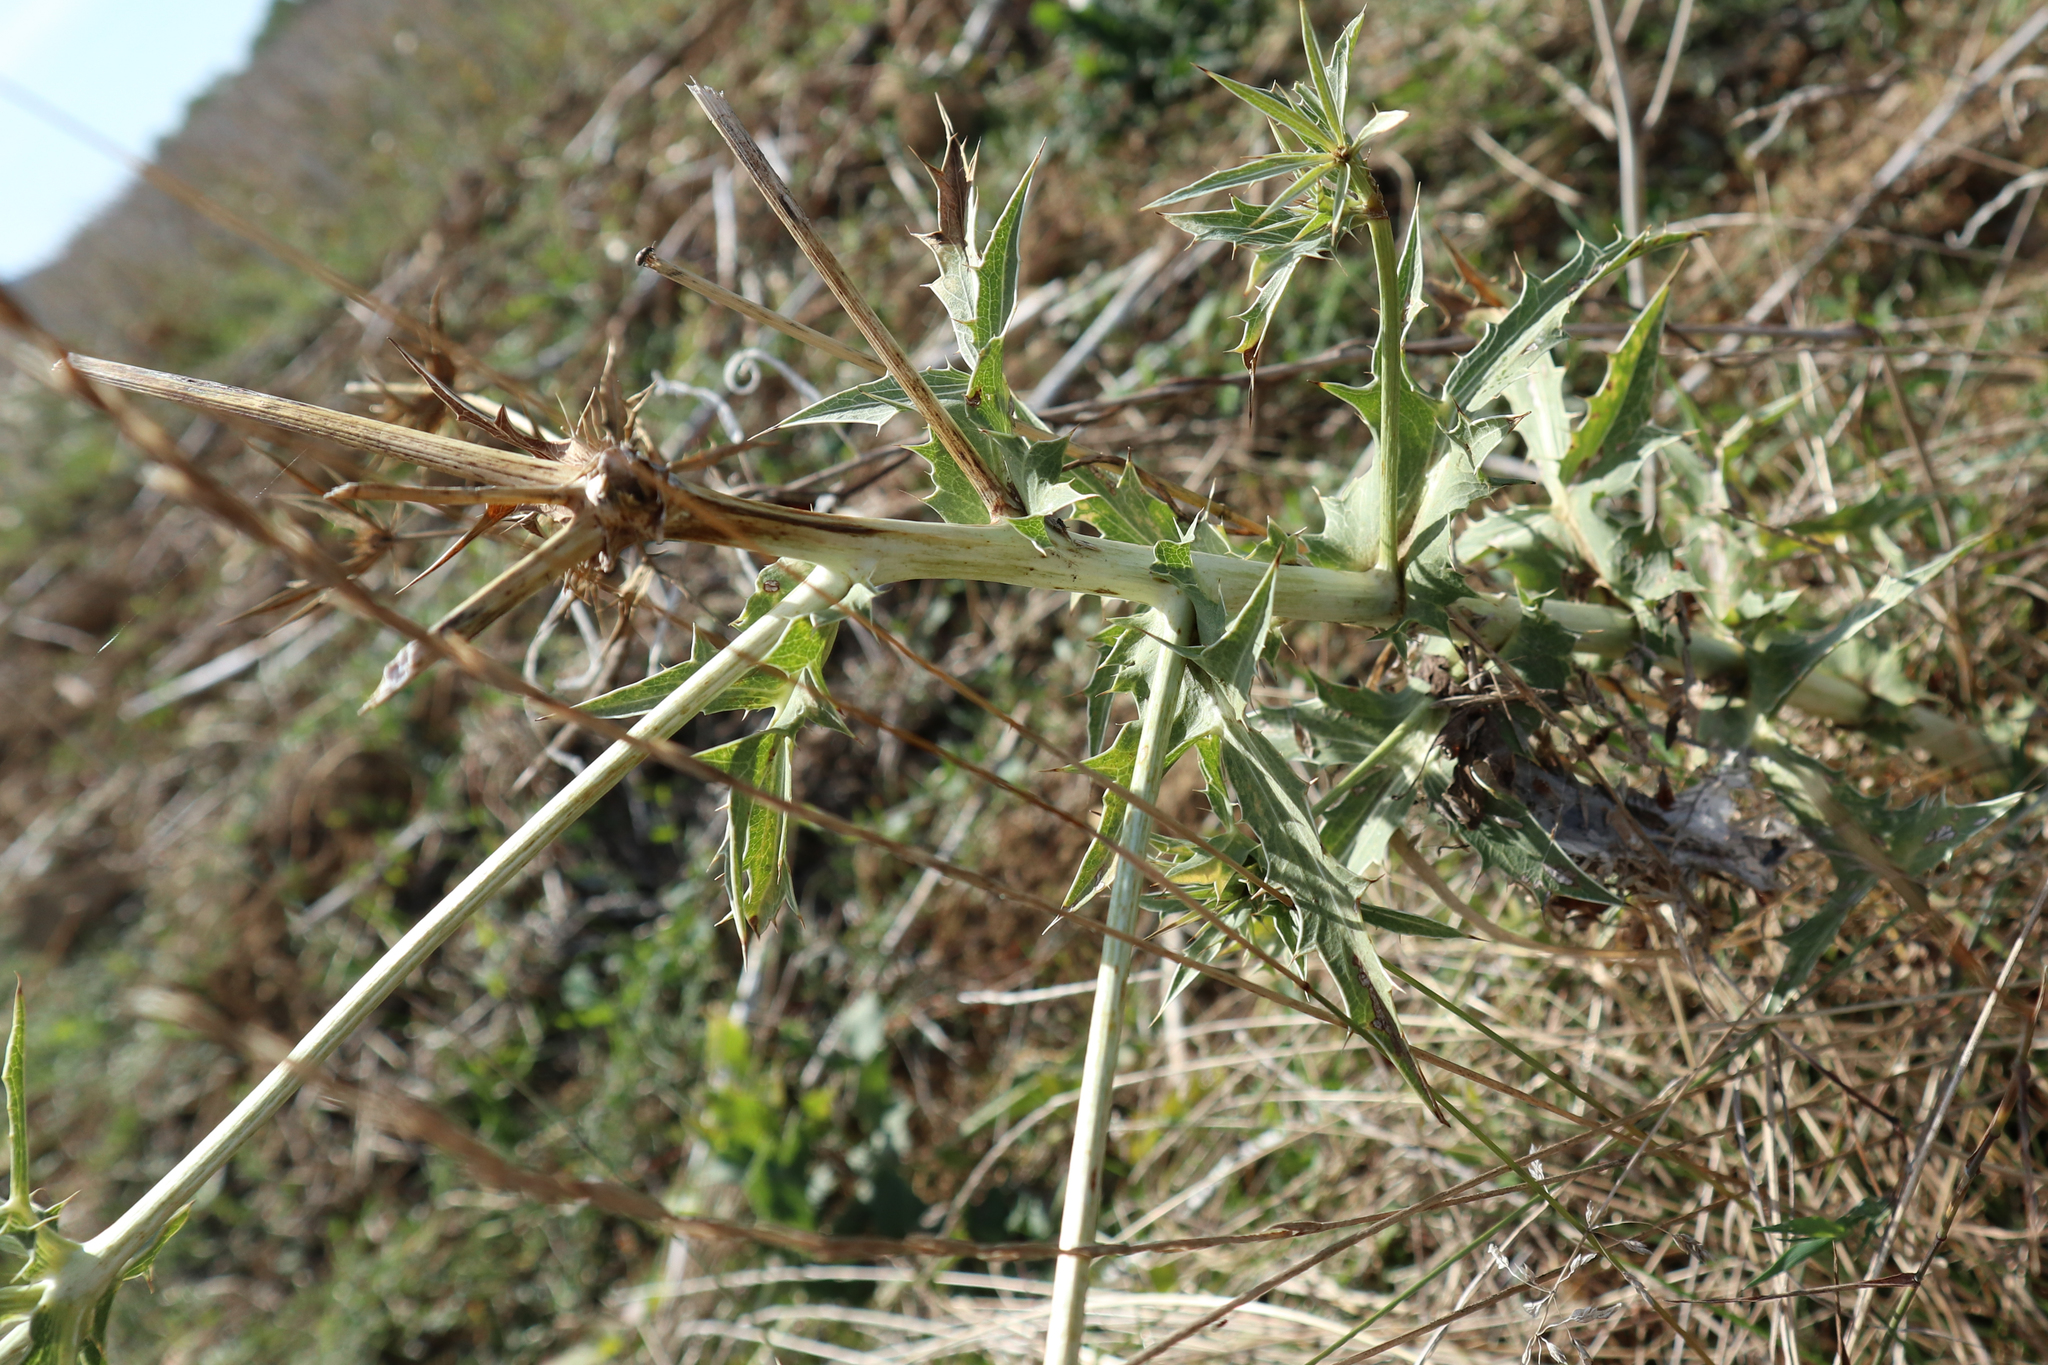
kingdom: Plantae
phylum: Tracheophyta
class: Magnoliopsida
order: Apiales
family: Apiaceae
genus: Eryngium
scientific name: Eryngium campestre
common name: Field eryngo
